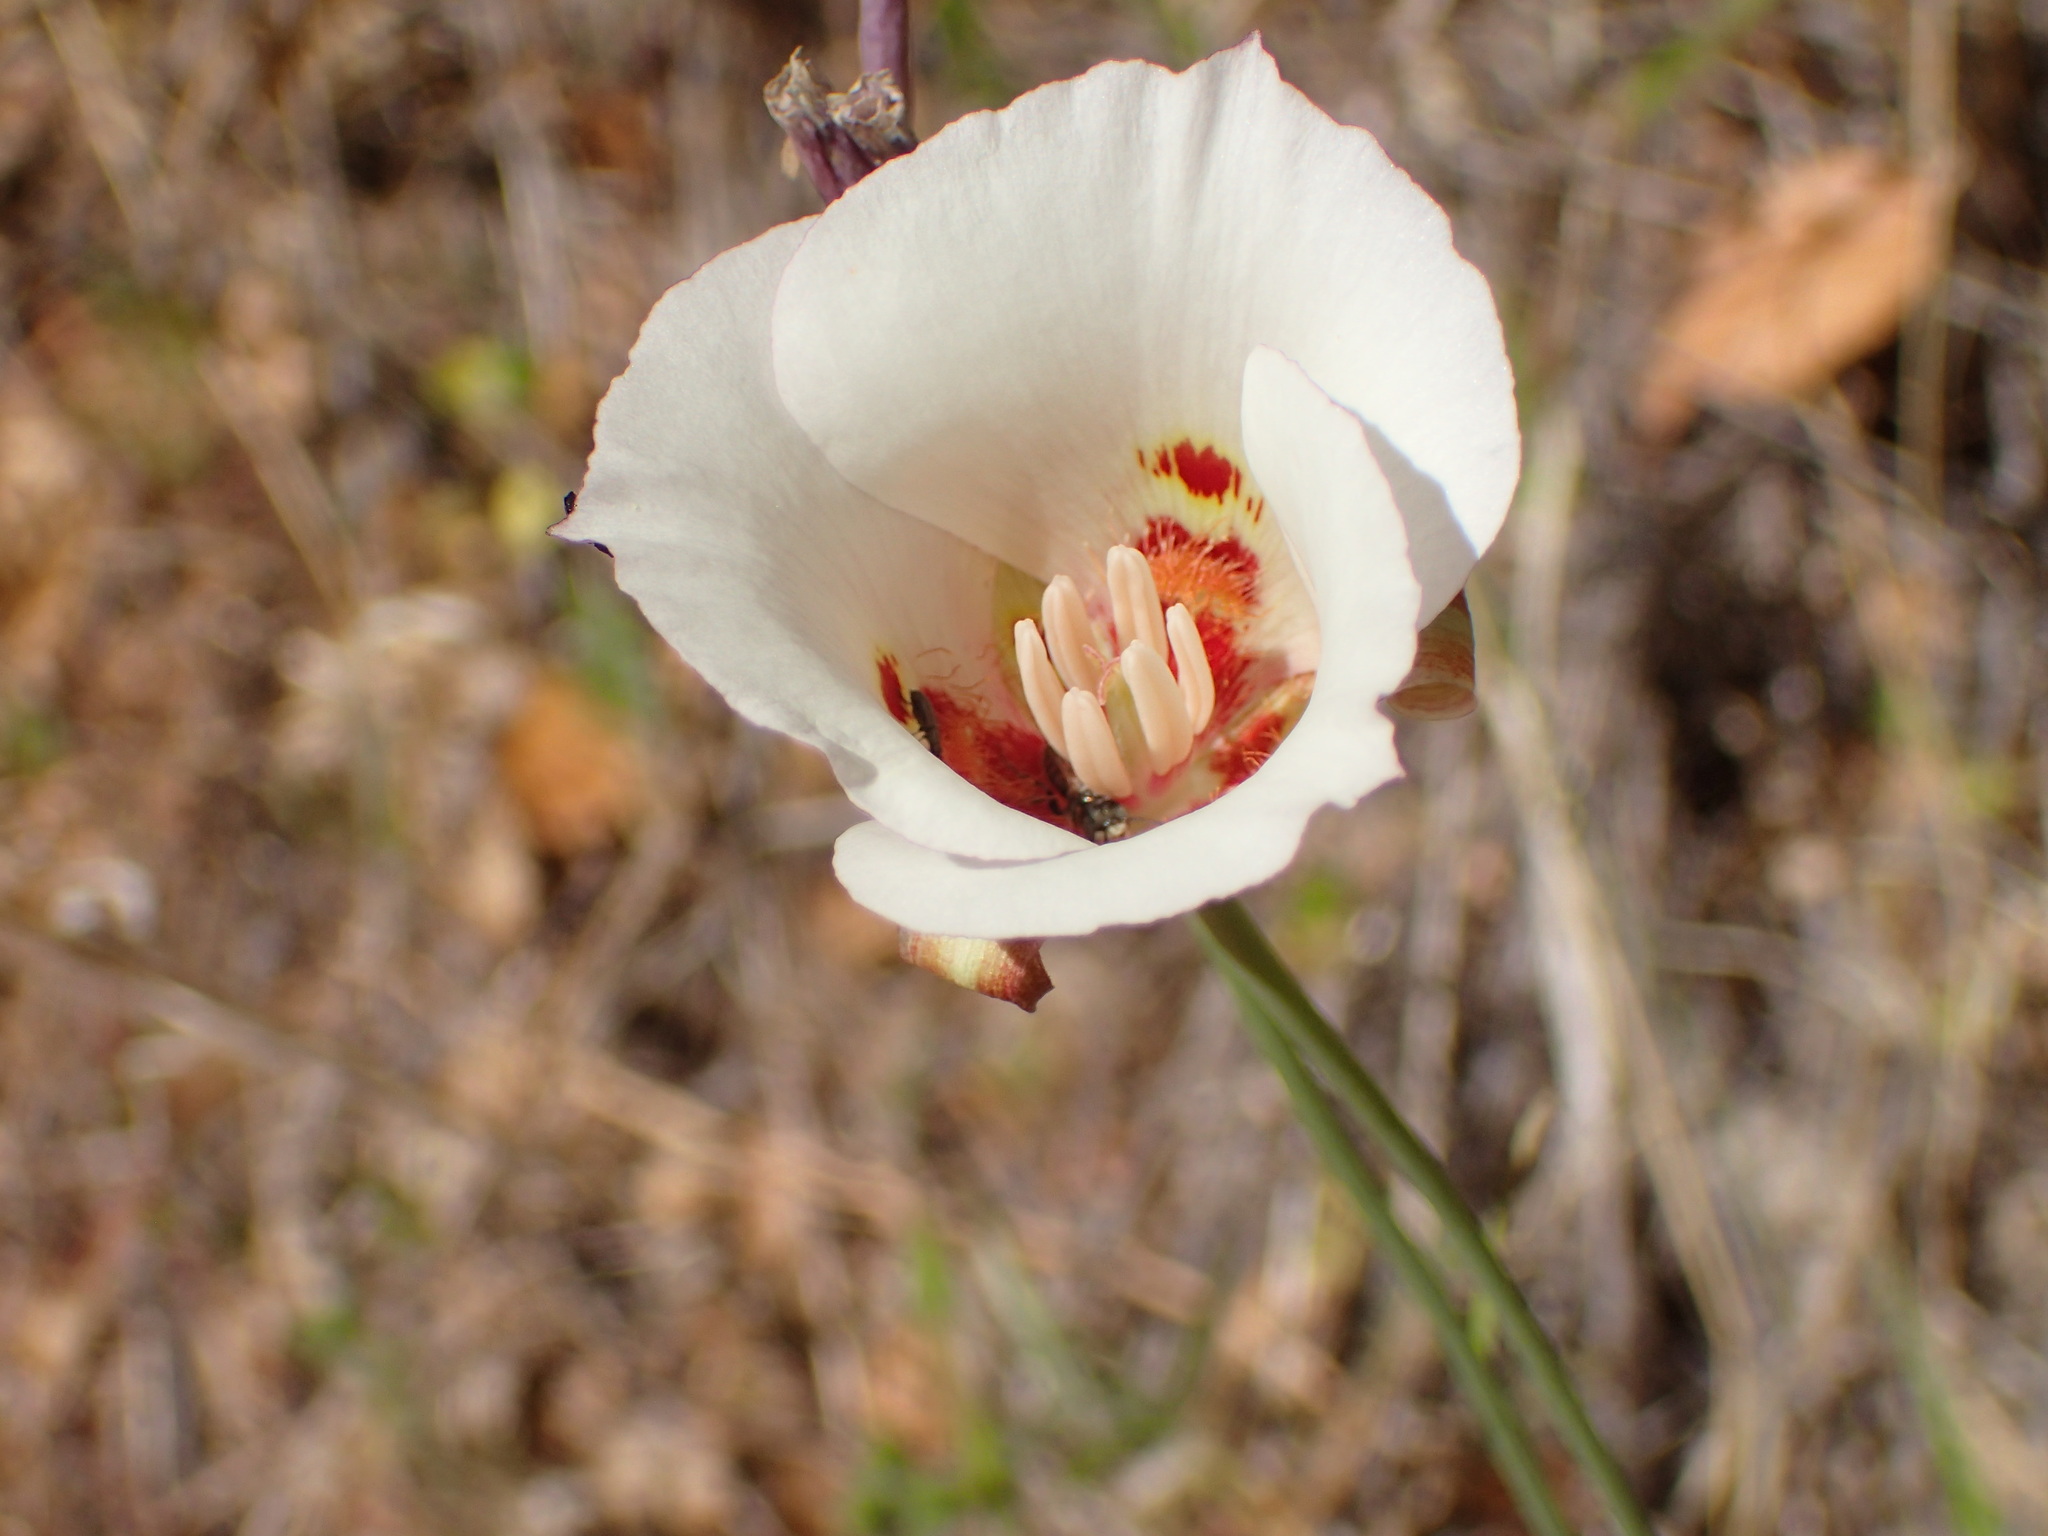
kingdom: Plantae
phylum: Tracheophyta
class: Liliopsida
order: Liliales
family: Liliaceae
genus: Calochortus
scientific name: Calochortus venustus
